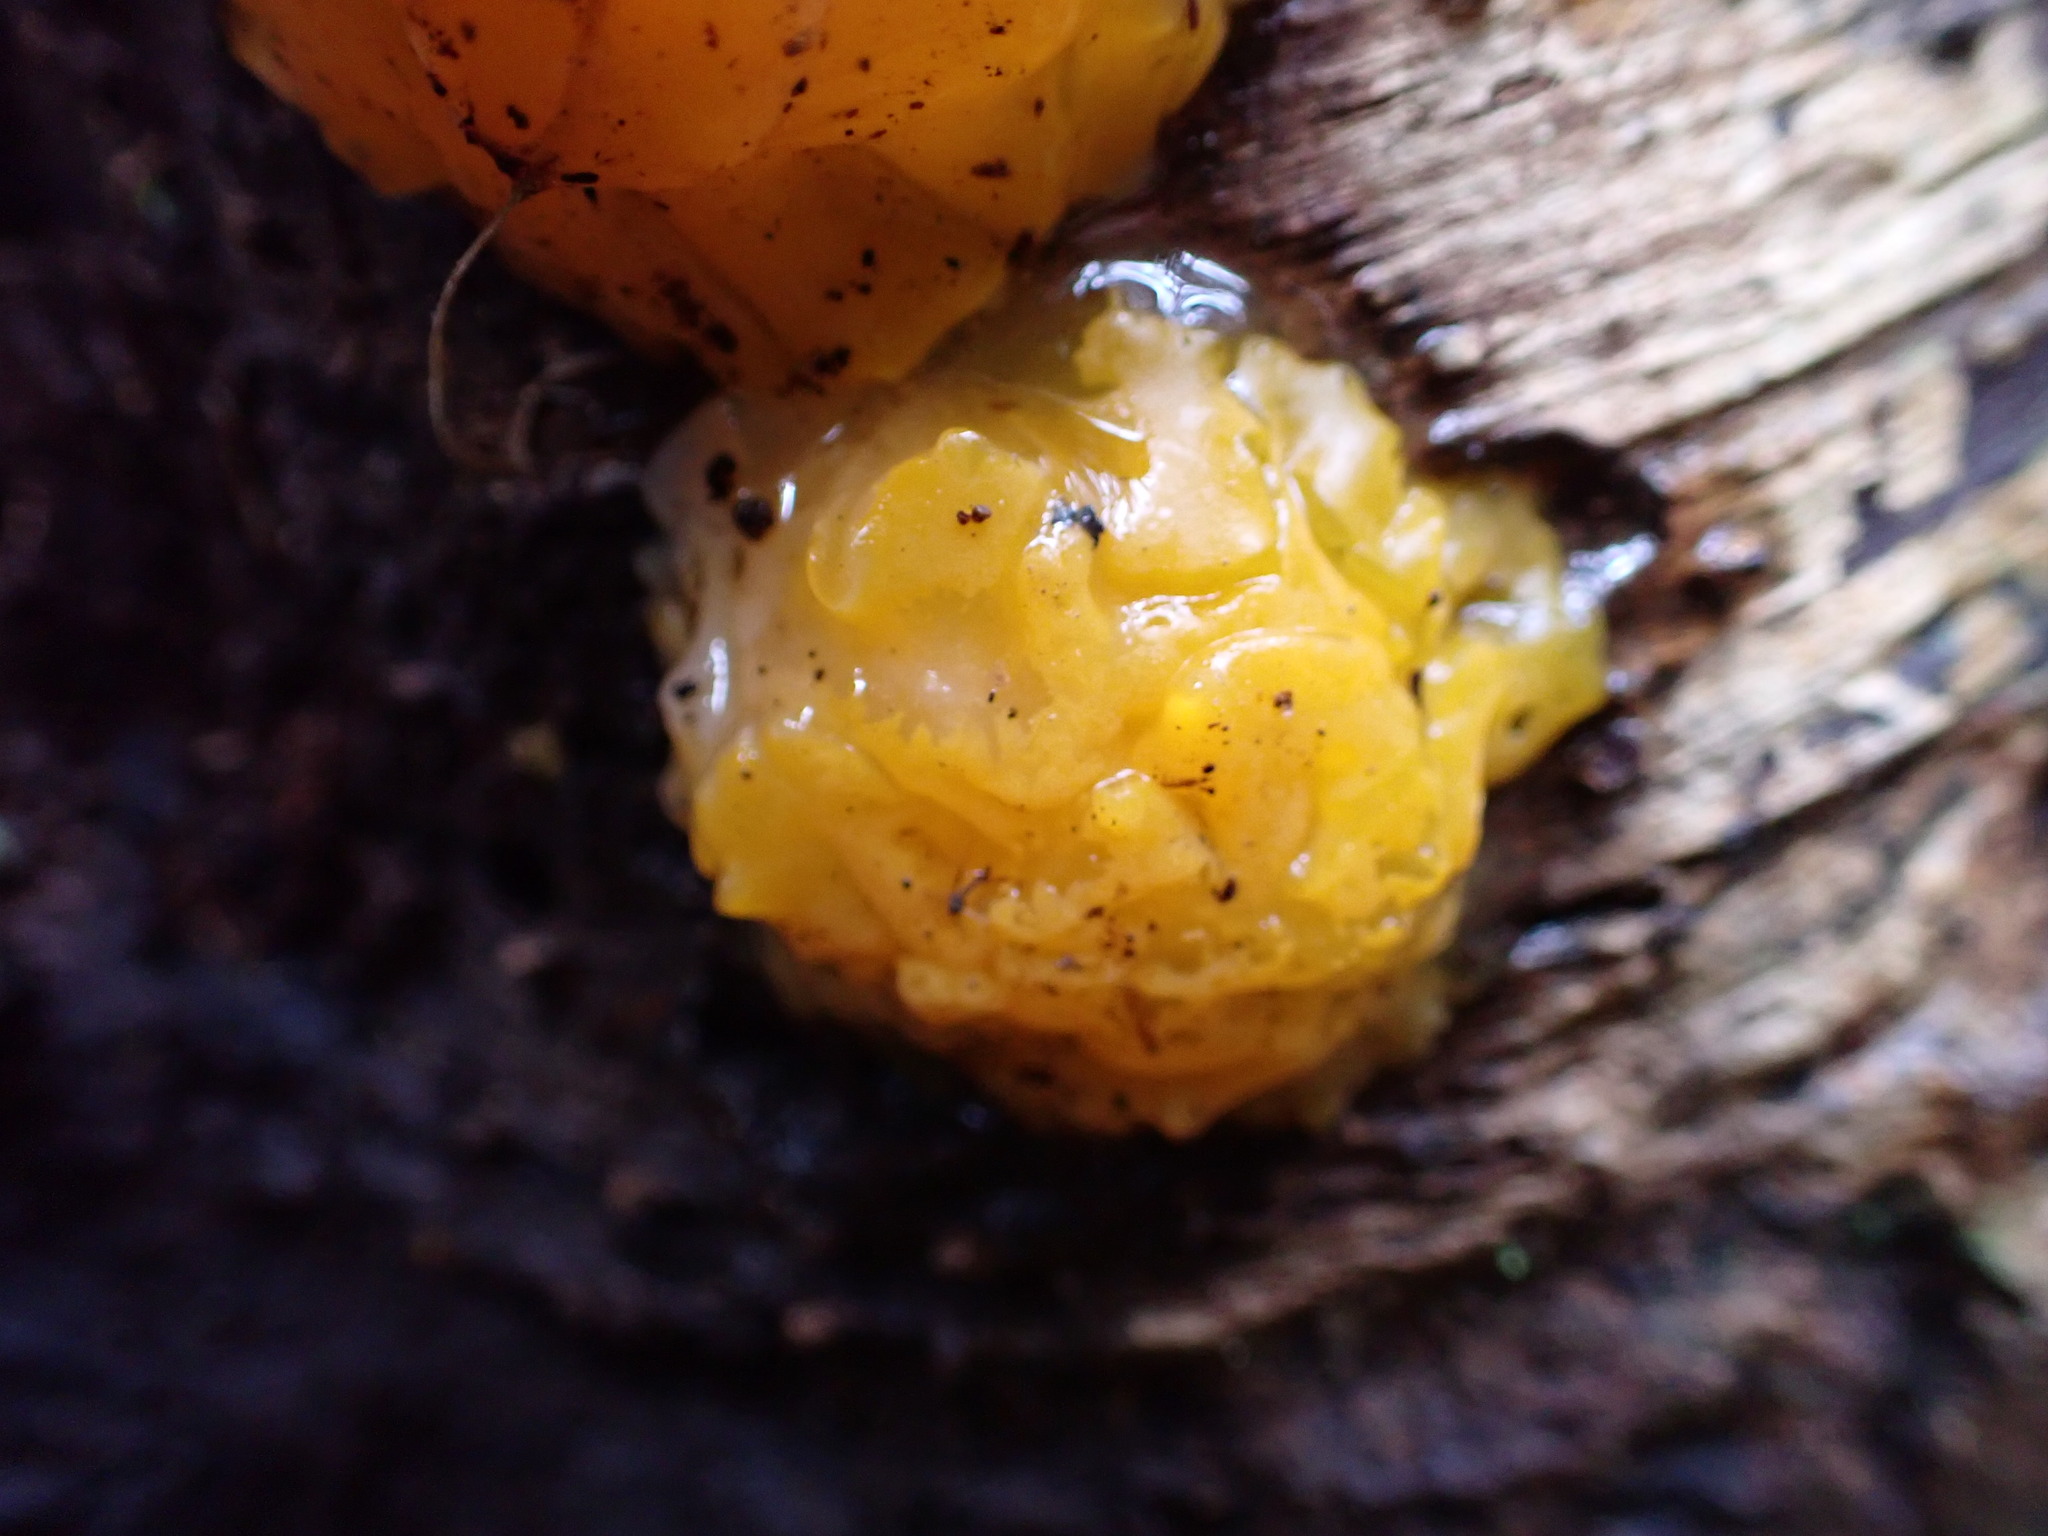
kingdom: Fungi
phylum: Basidiomycota
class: Dacrymycetes
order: Dacrymycetales
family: Dacrymycetaceae
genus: Dacrymyces
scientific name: Dacrymyces chrysospermus
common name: Orange jelly spot
